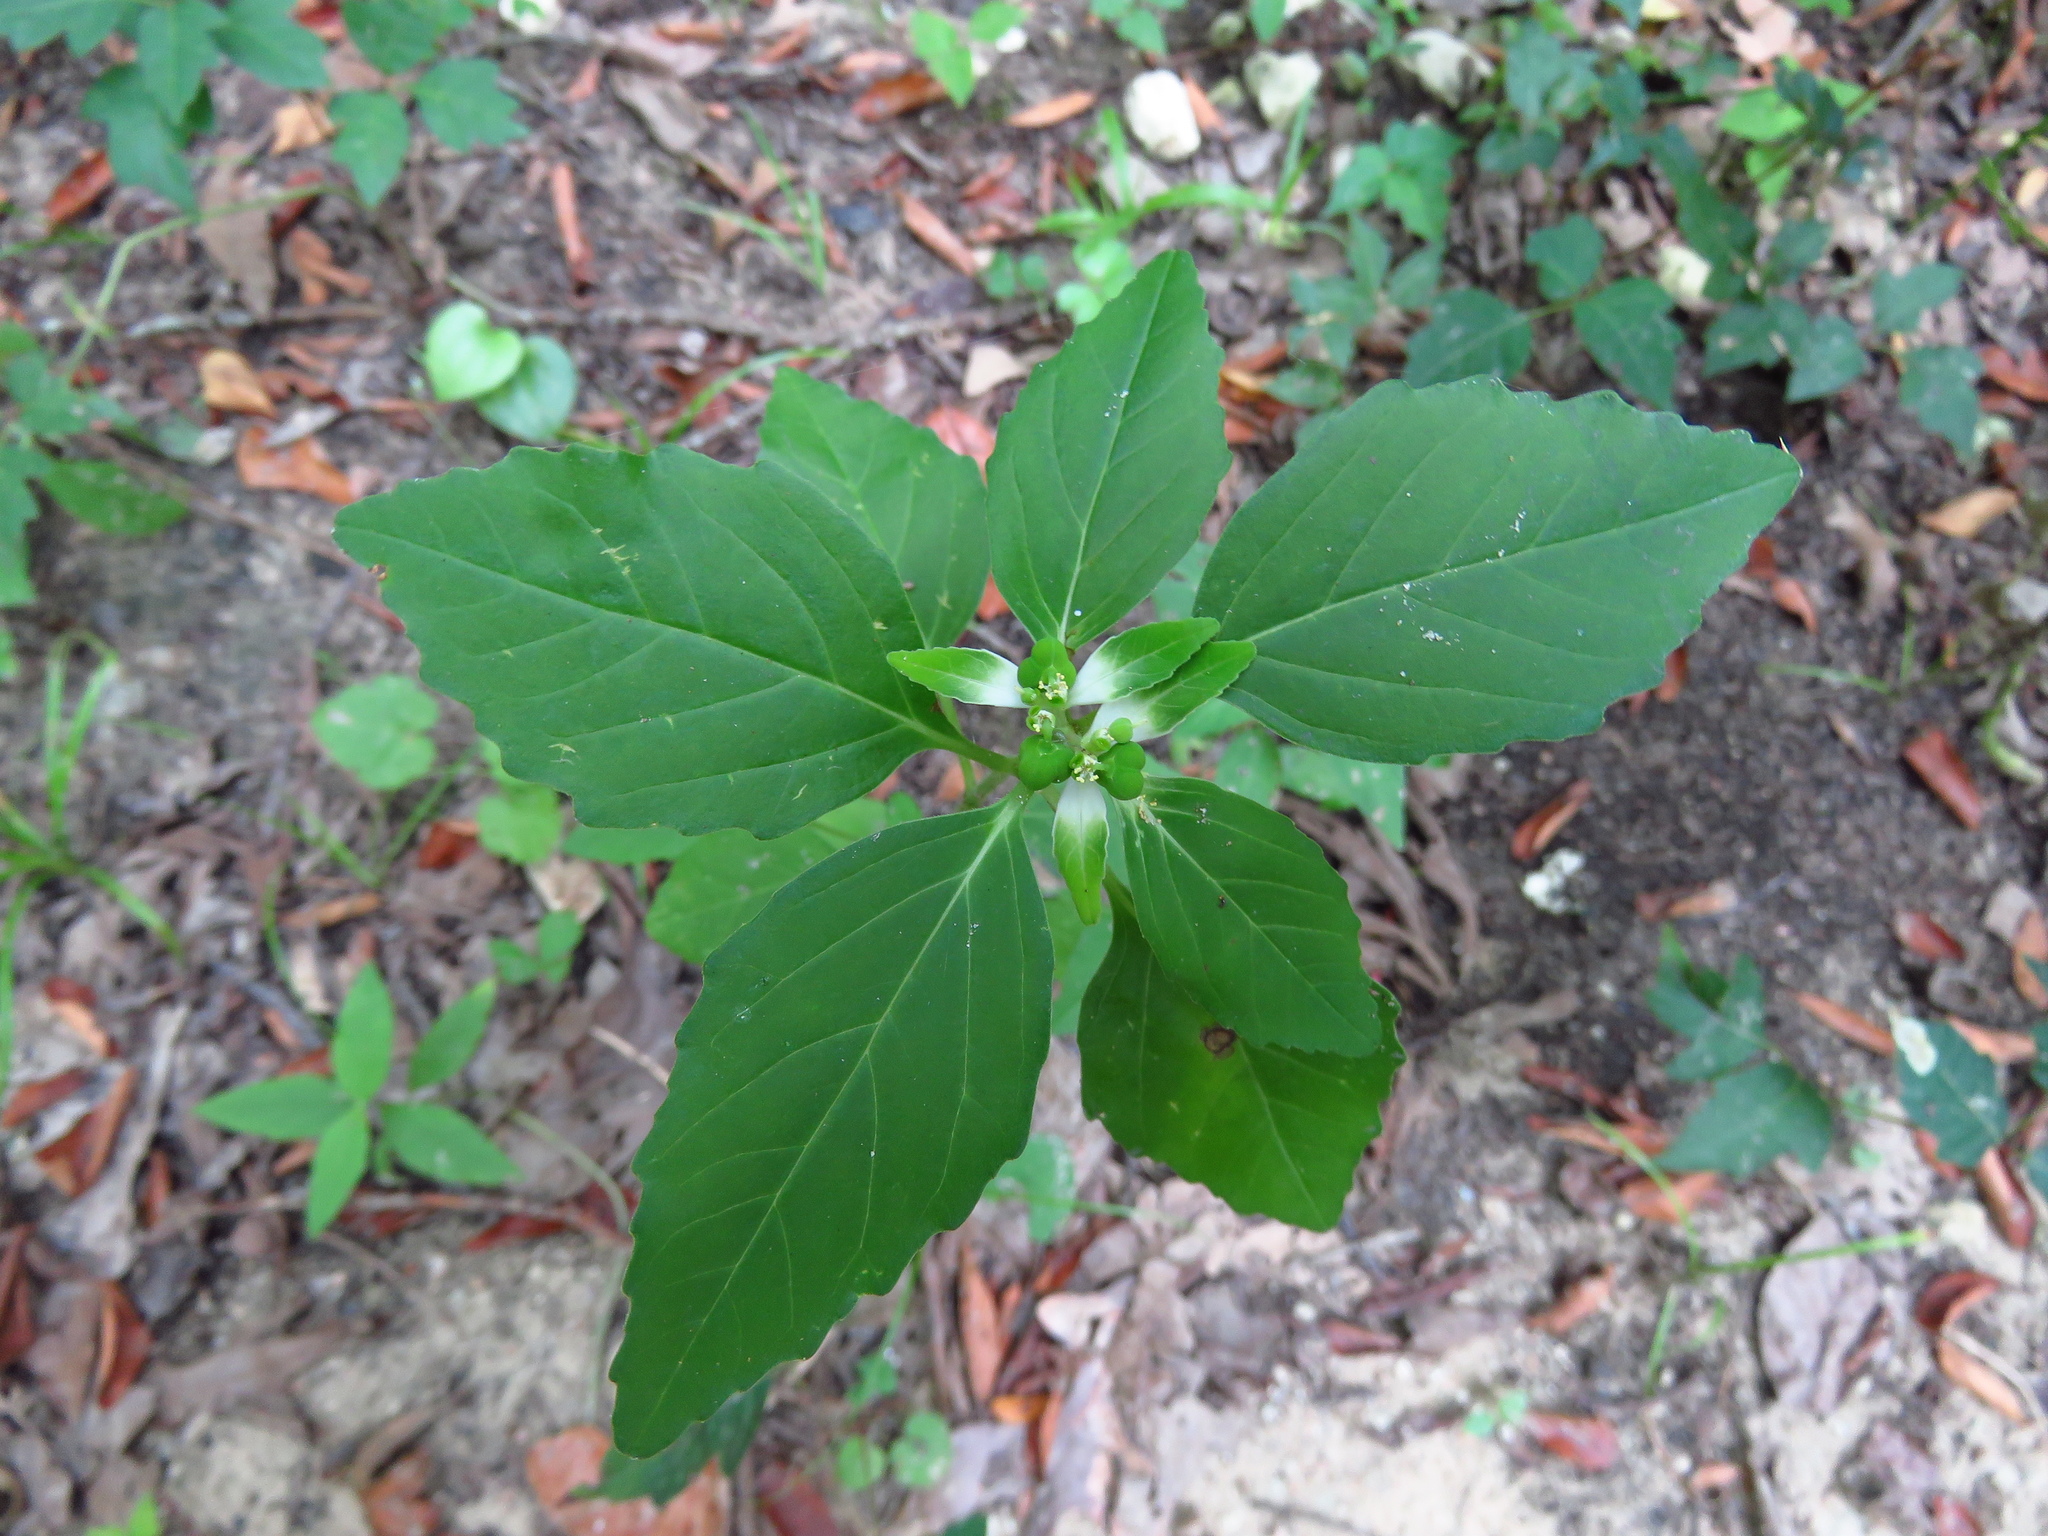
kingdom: Plantae
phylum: Tracheophyta
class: Magnoliopsida
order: Malpighiales
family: Euphorbiaceae
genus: Euphorbia
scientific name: Euphorbia dentata
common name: Dentate spurge
